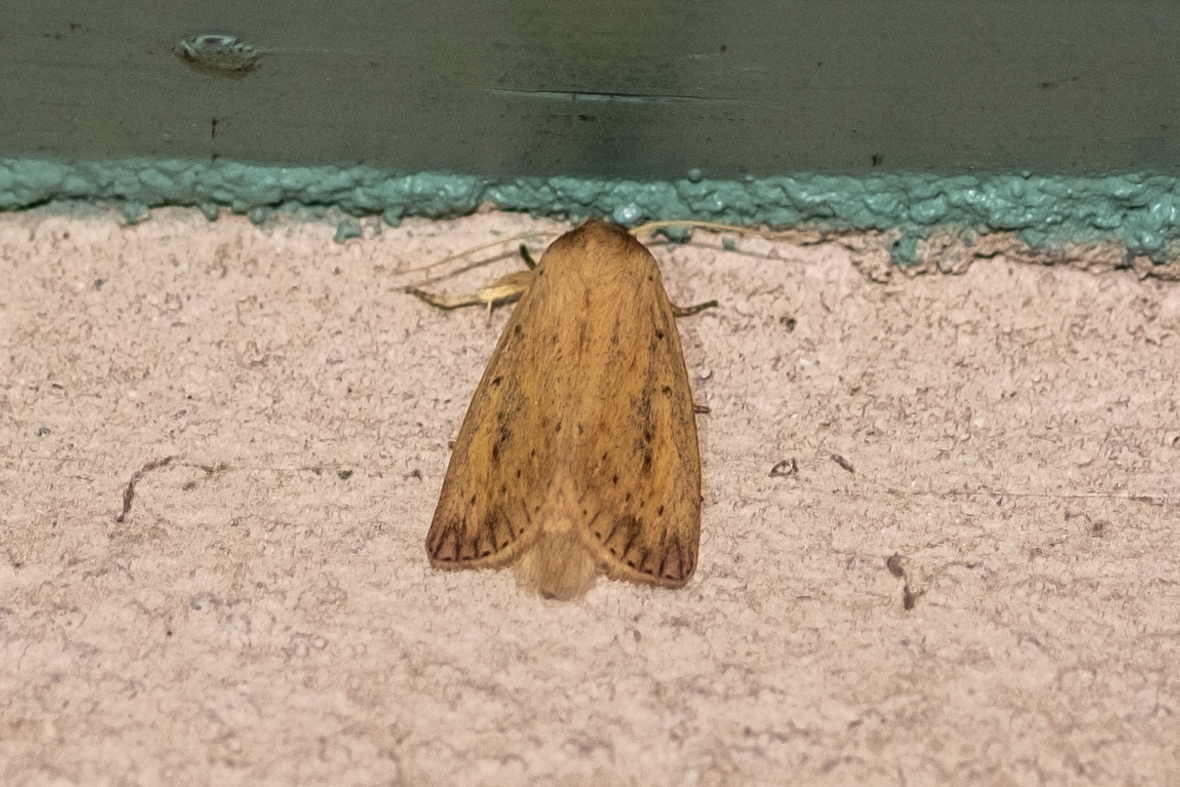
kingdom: Animalia
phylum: Arthropoda
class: Insecta
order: Lepidoptera
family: Noctuidae
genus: Globia
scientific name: Globia oblonga
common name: Oblong sedge borer moth
